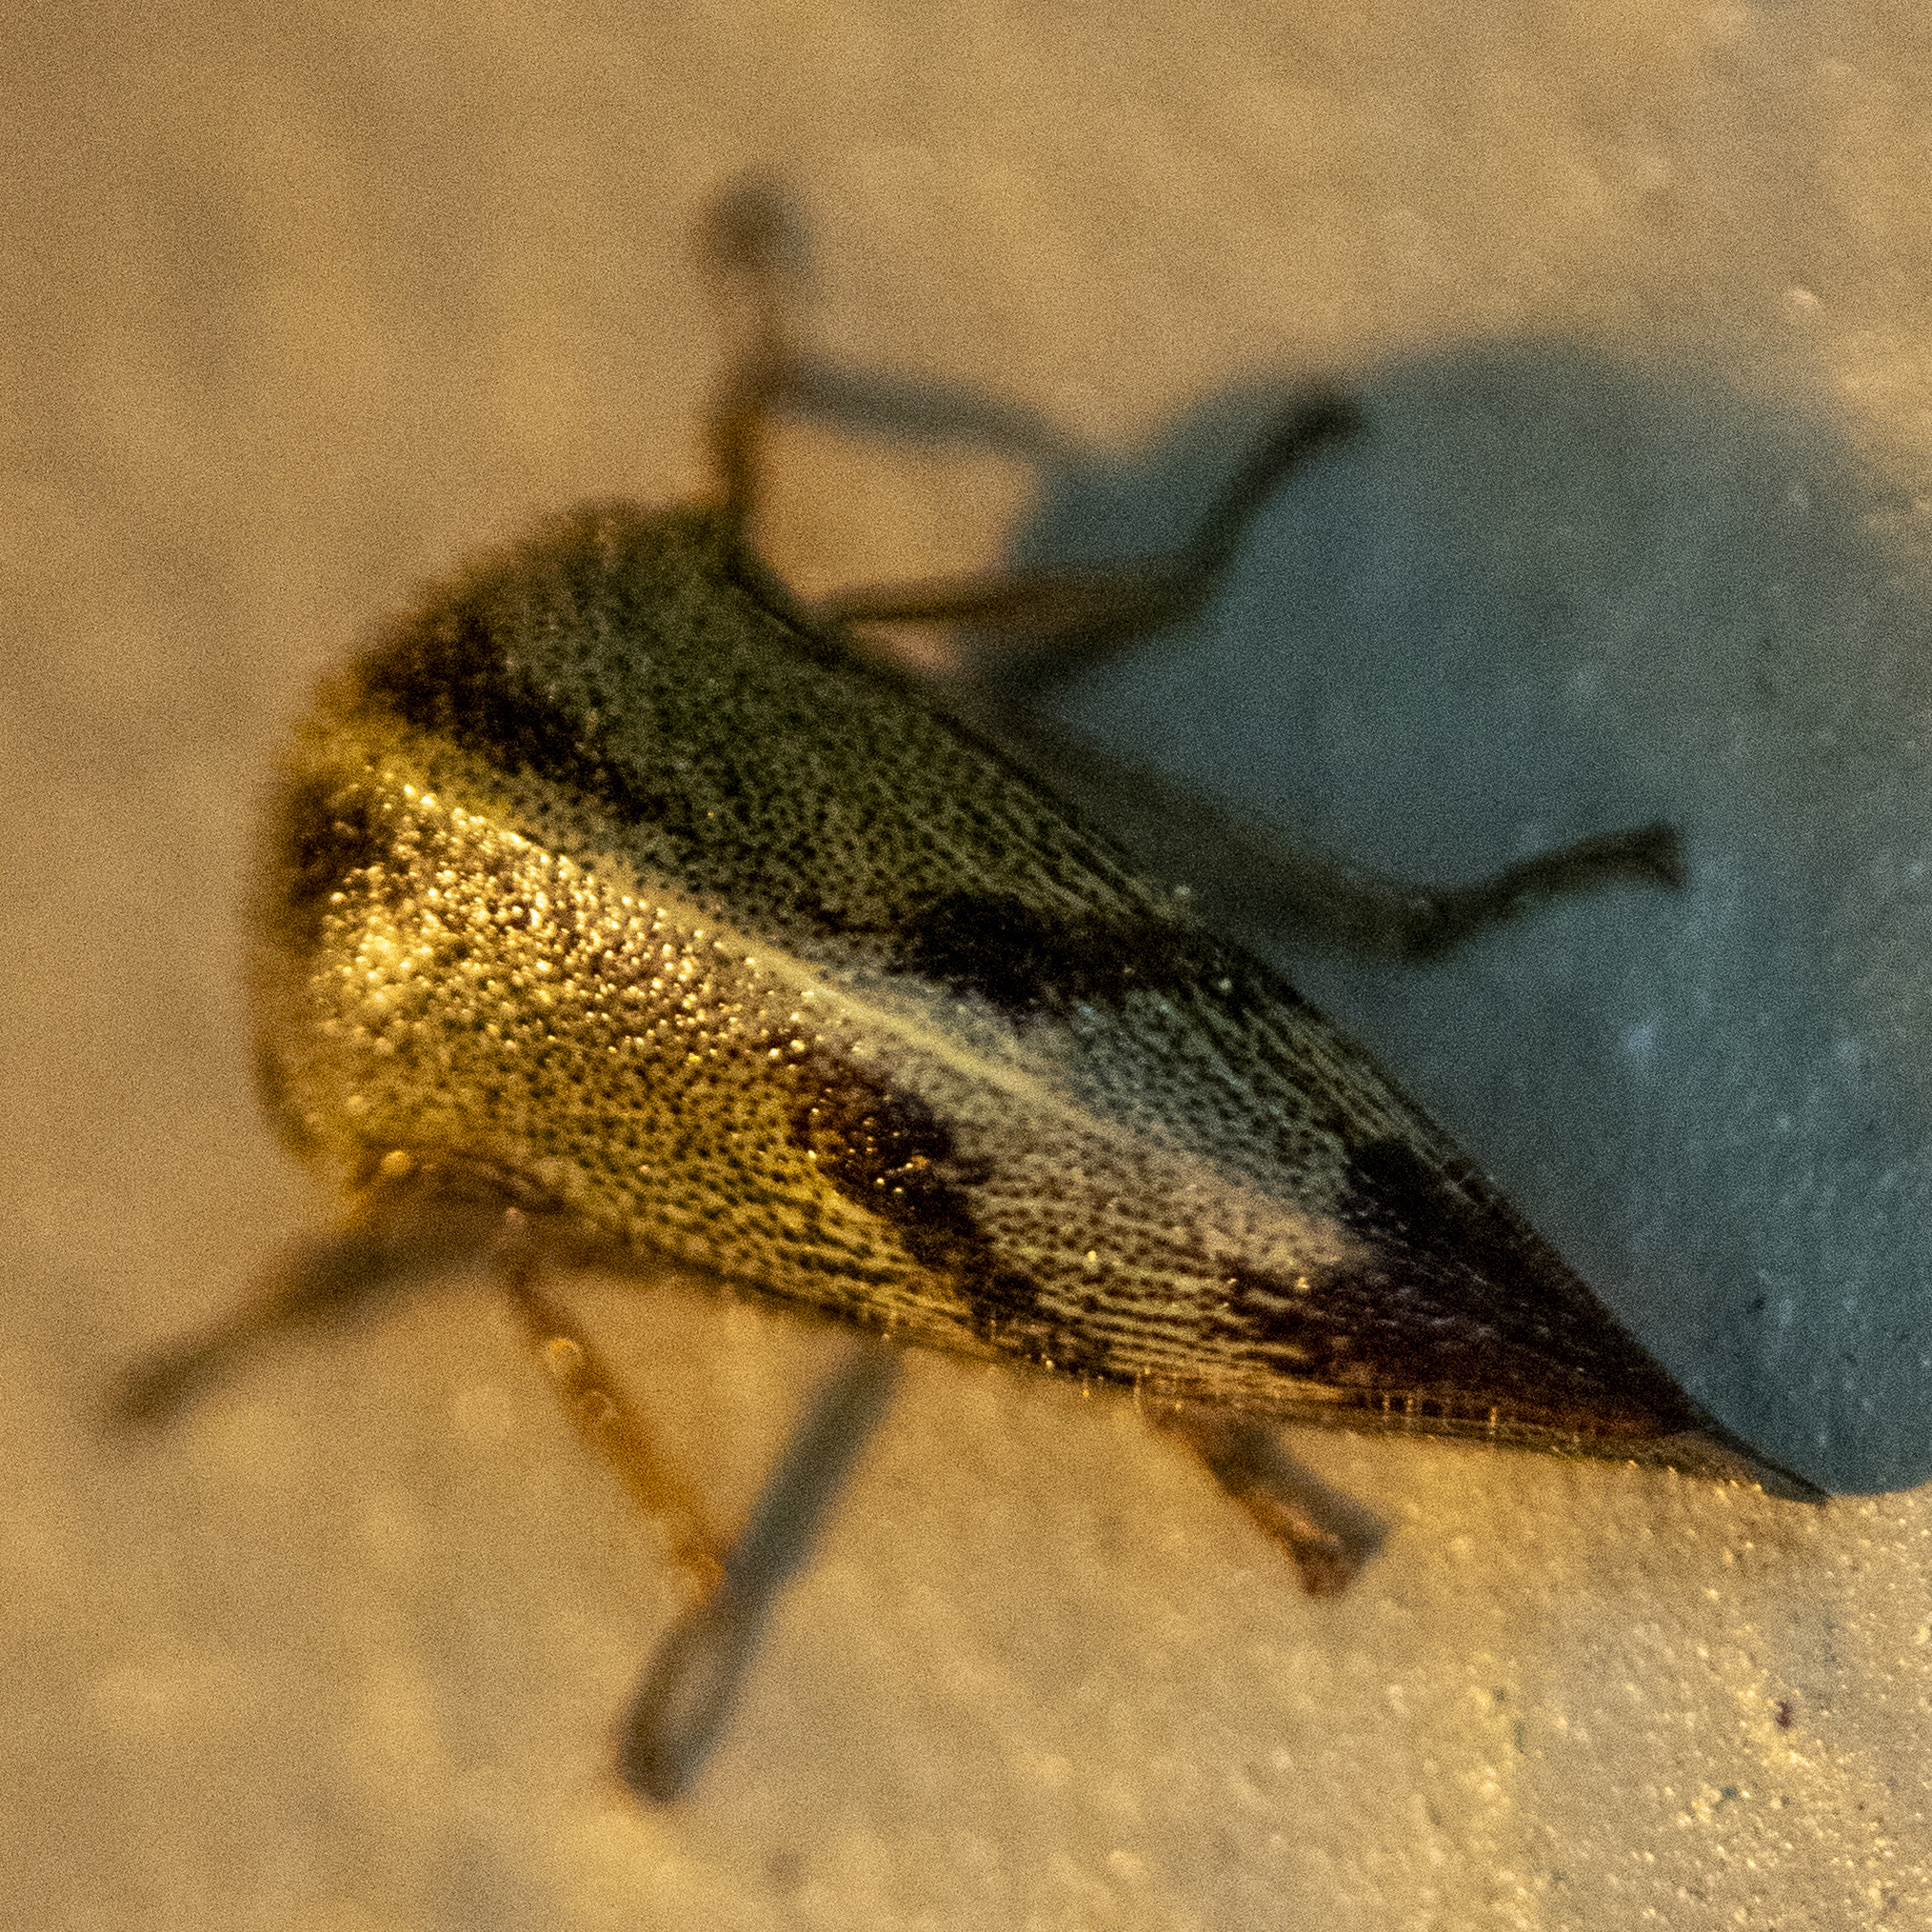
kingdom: Animalia
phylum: Arthropoda
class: Insecta
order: Hemiptera
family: Membracidae
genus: Carynota
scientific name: Carynota mera
